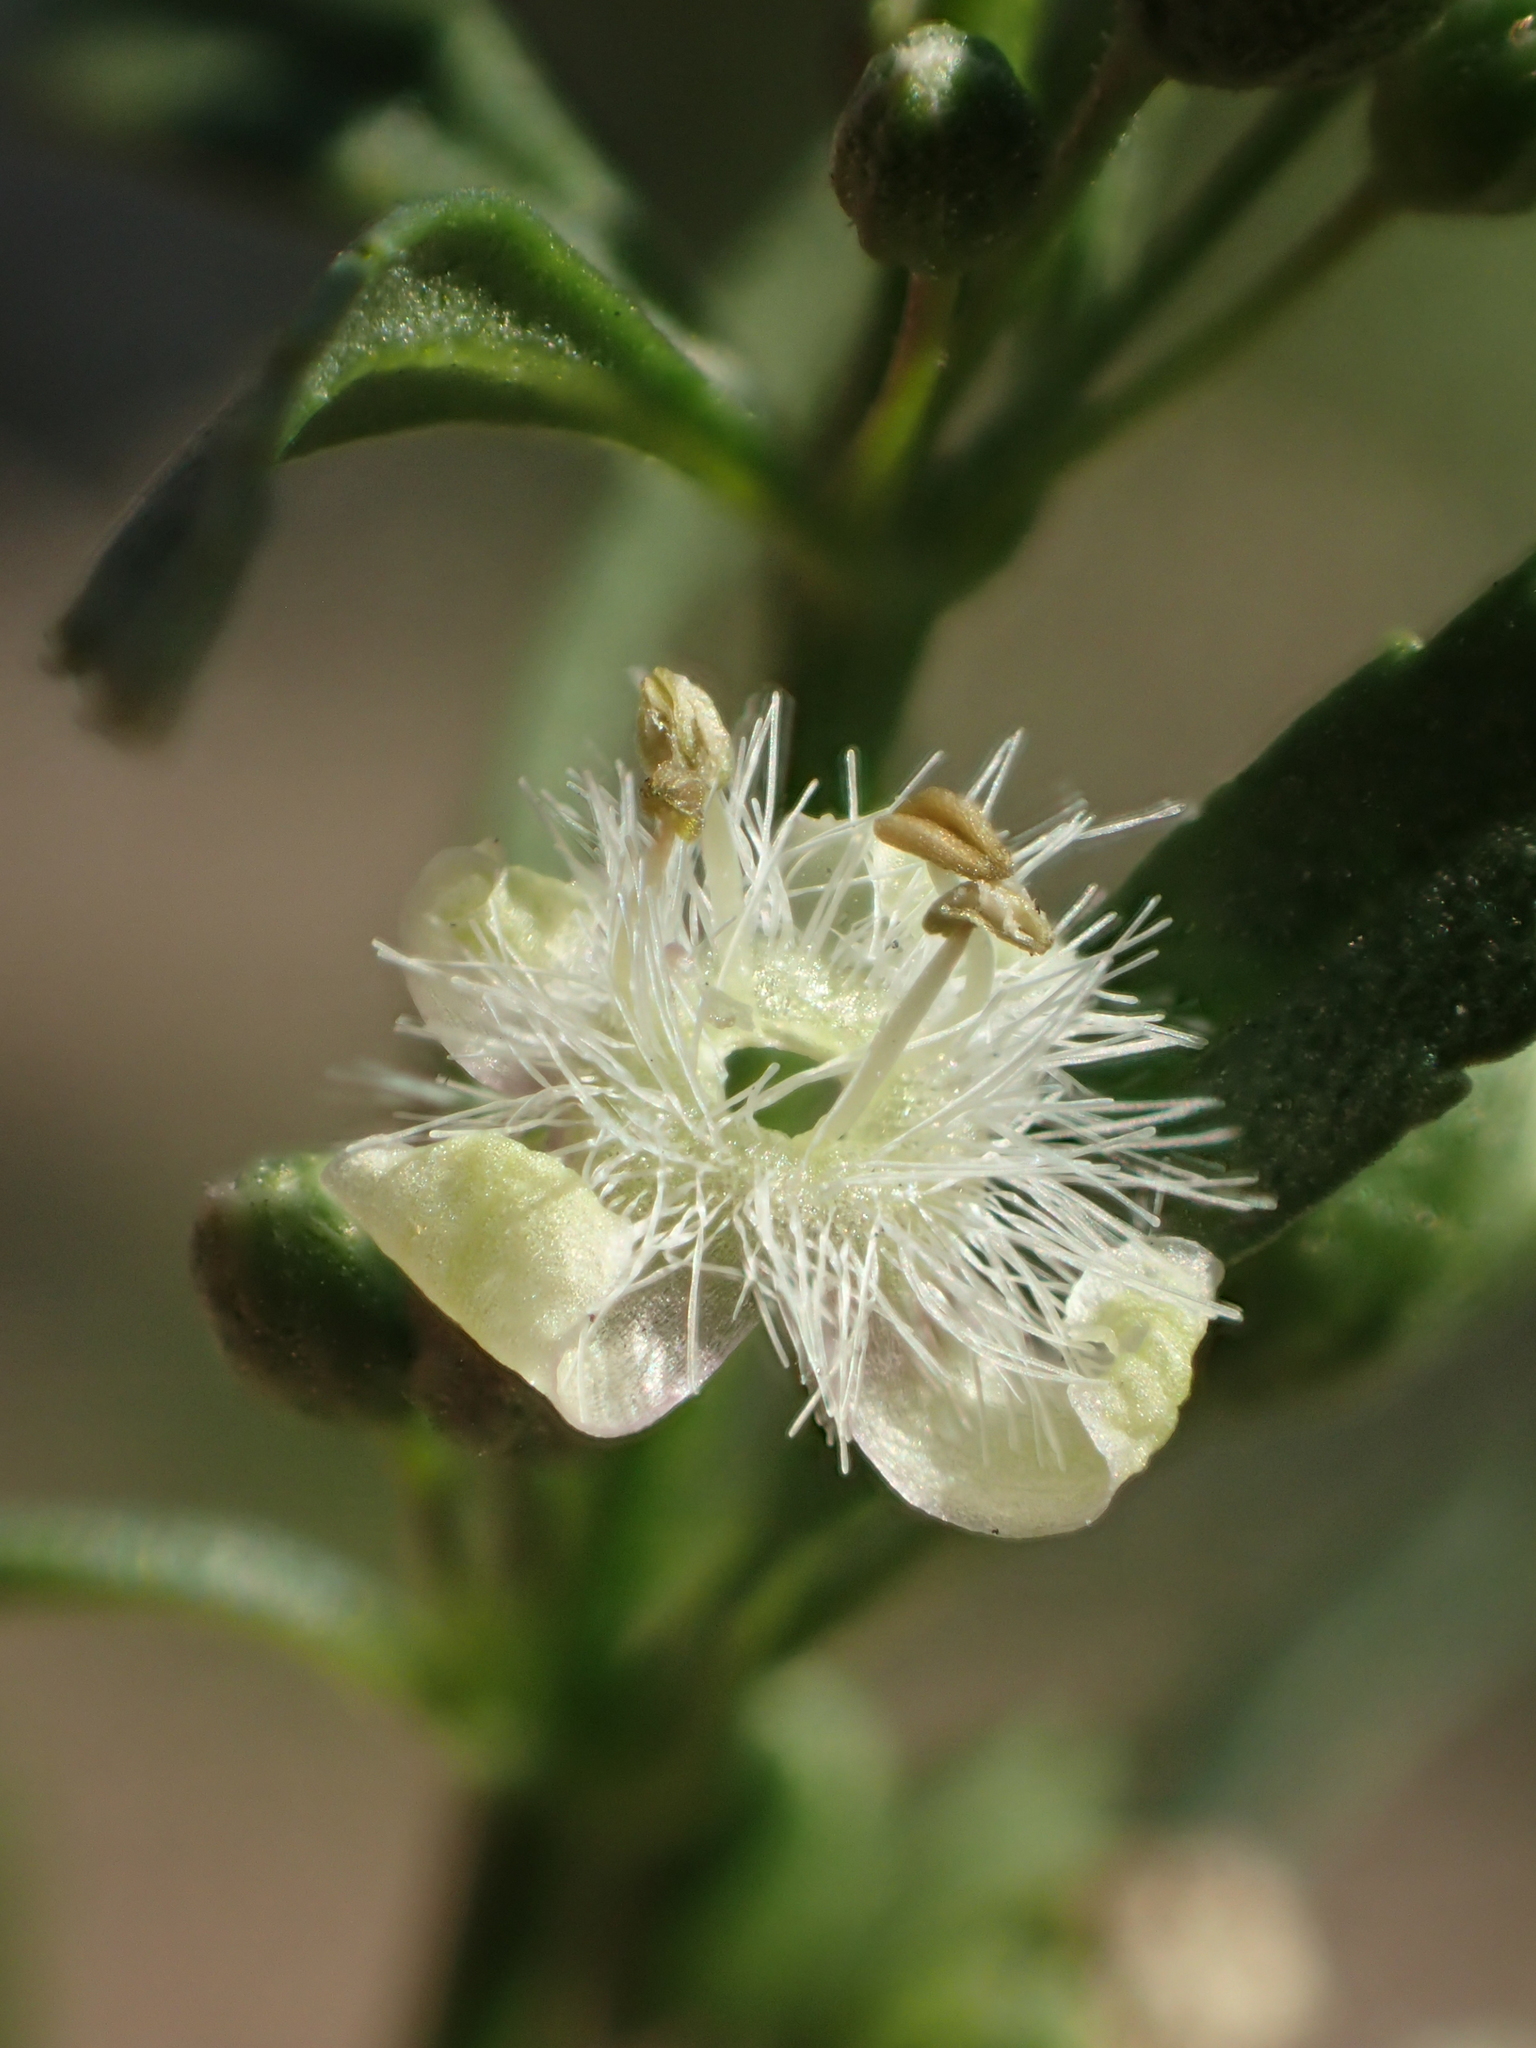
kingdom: Plantae
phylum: Tracheophyta
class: Magnoliopsida
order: Lamiales
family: Plantaginaceae
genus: Scoparia
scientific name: Scoparia dulcis
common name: Scoparia-weed
